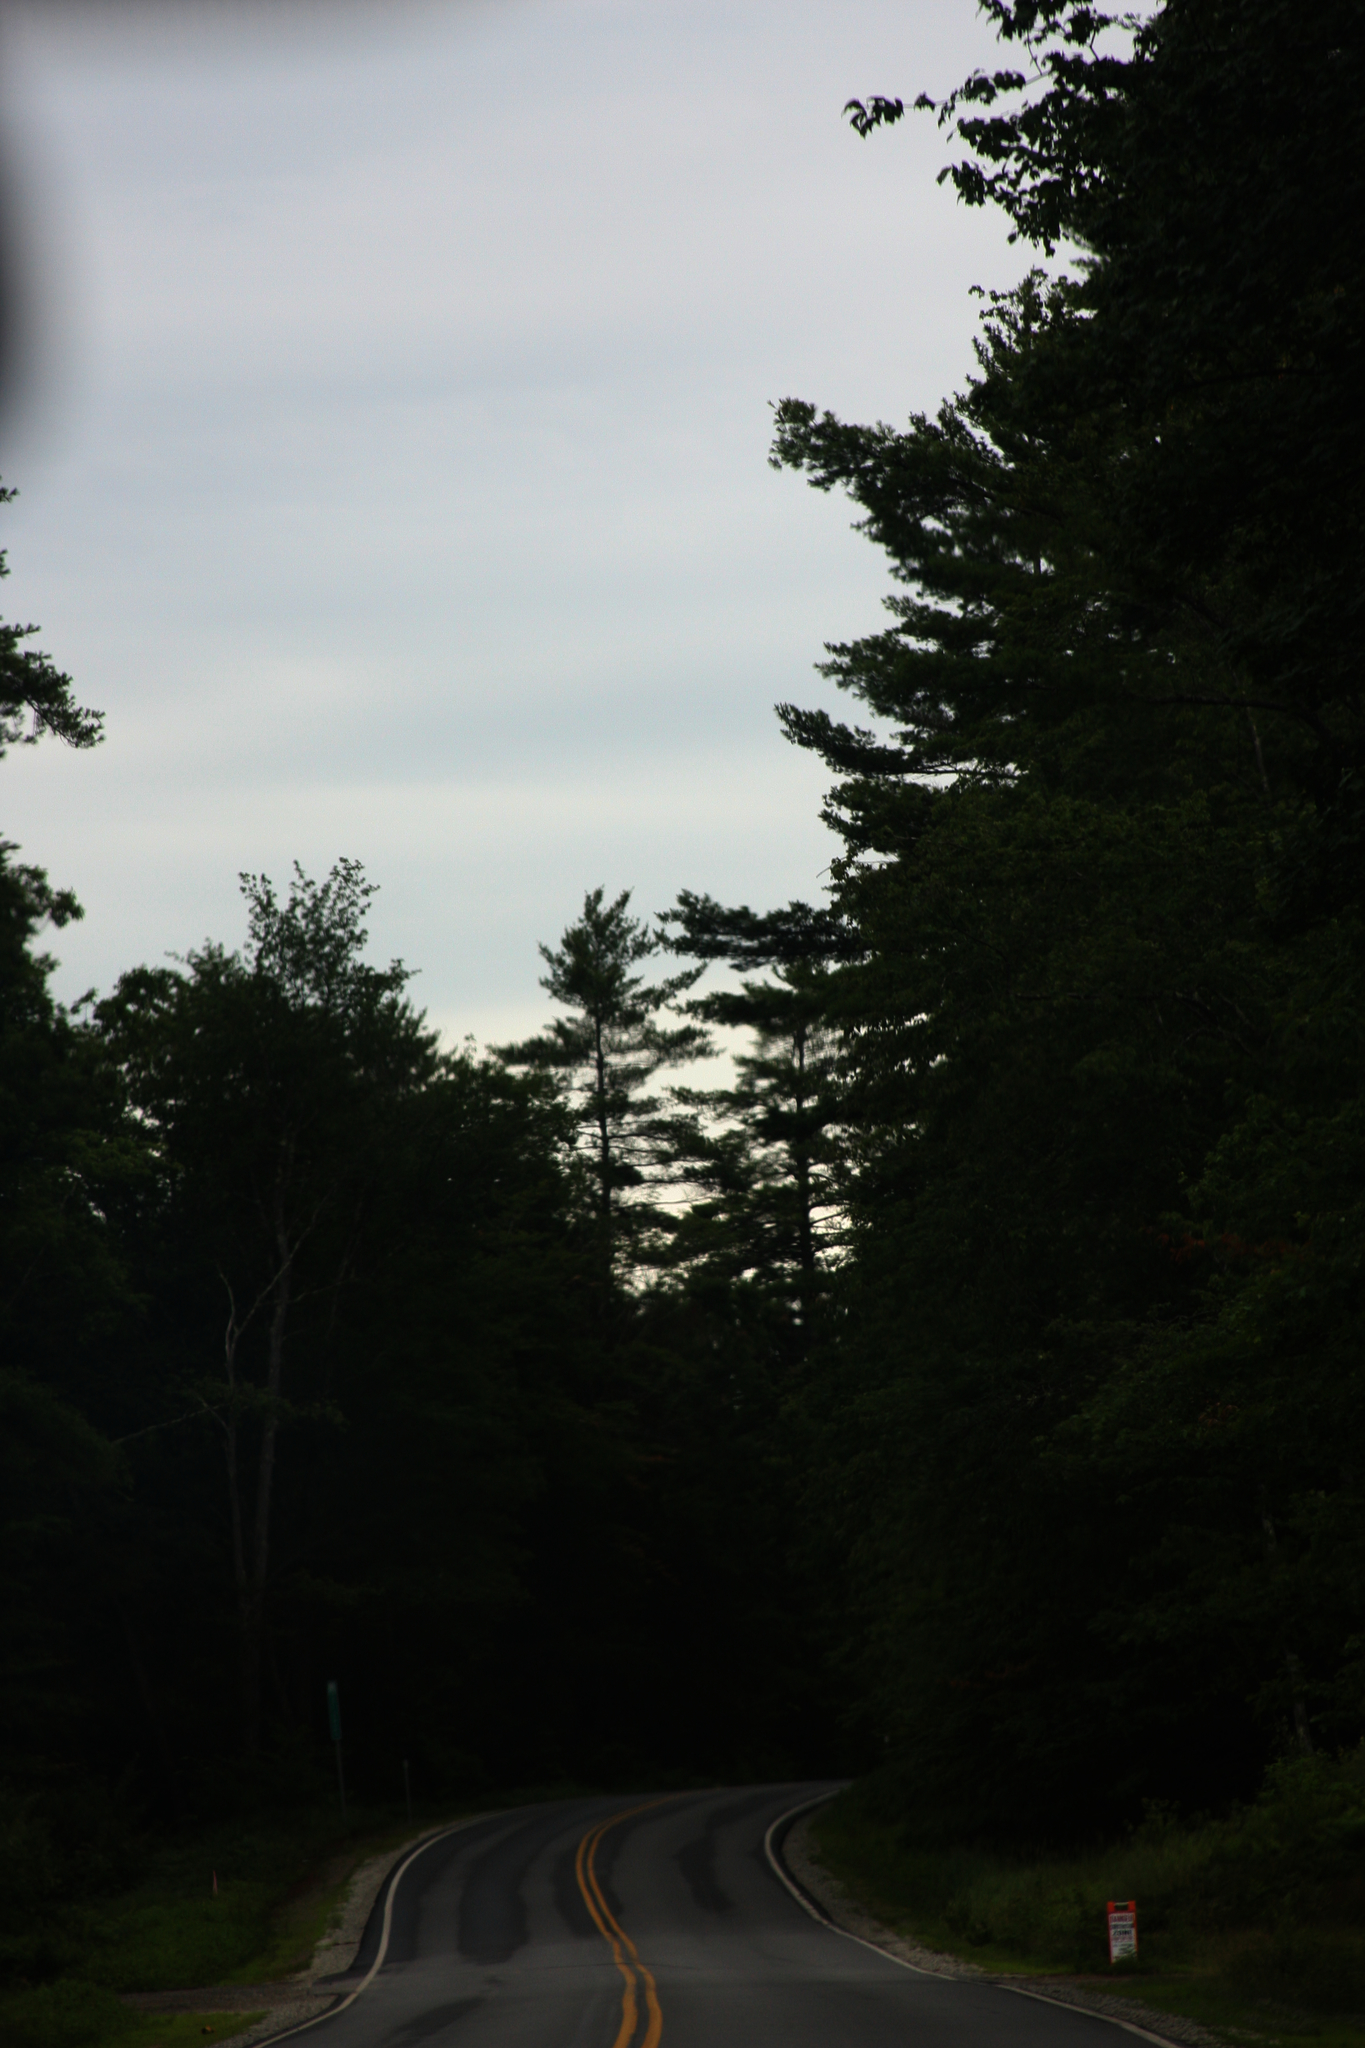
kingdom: Plantae
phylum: Tracheophyta
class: Pinopsida
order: Pinales
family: Pinaceae
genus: Pinus
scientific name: Pinus strobus
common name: Weymouth pine
